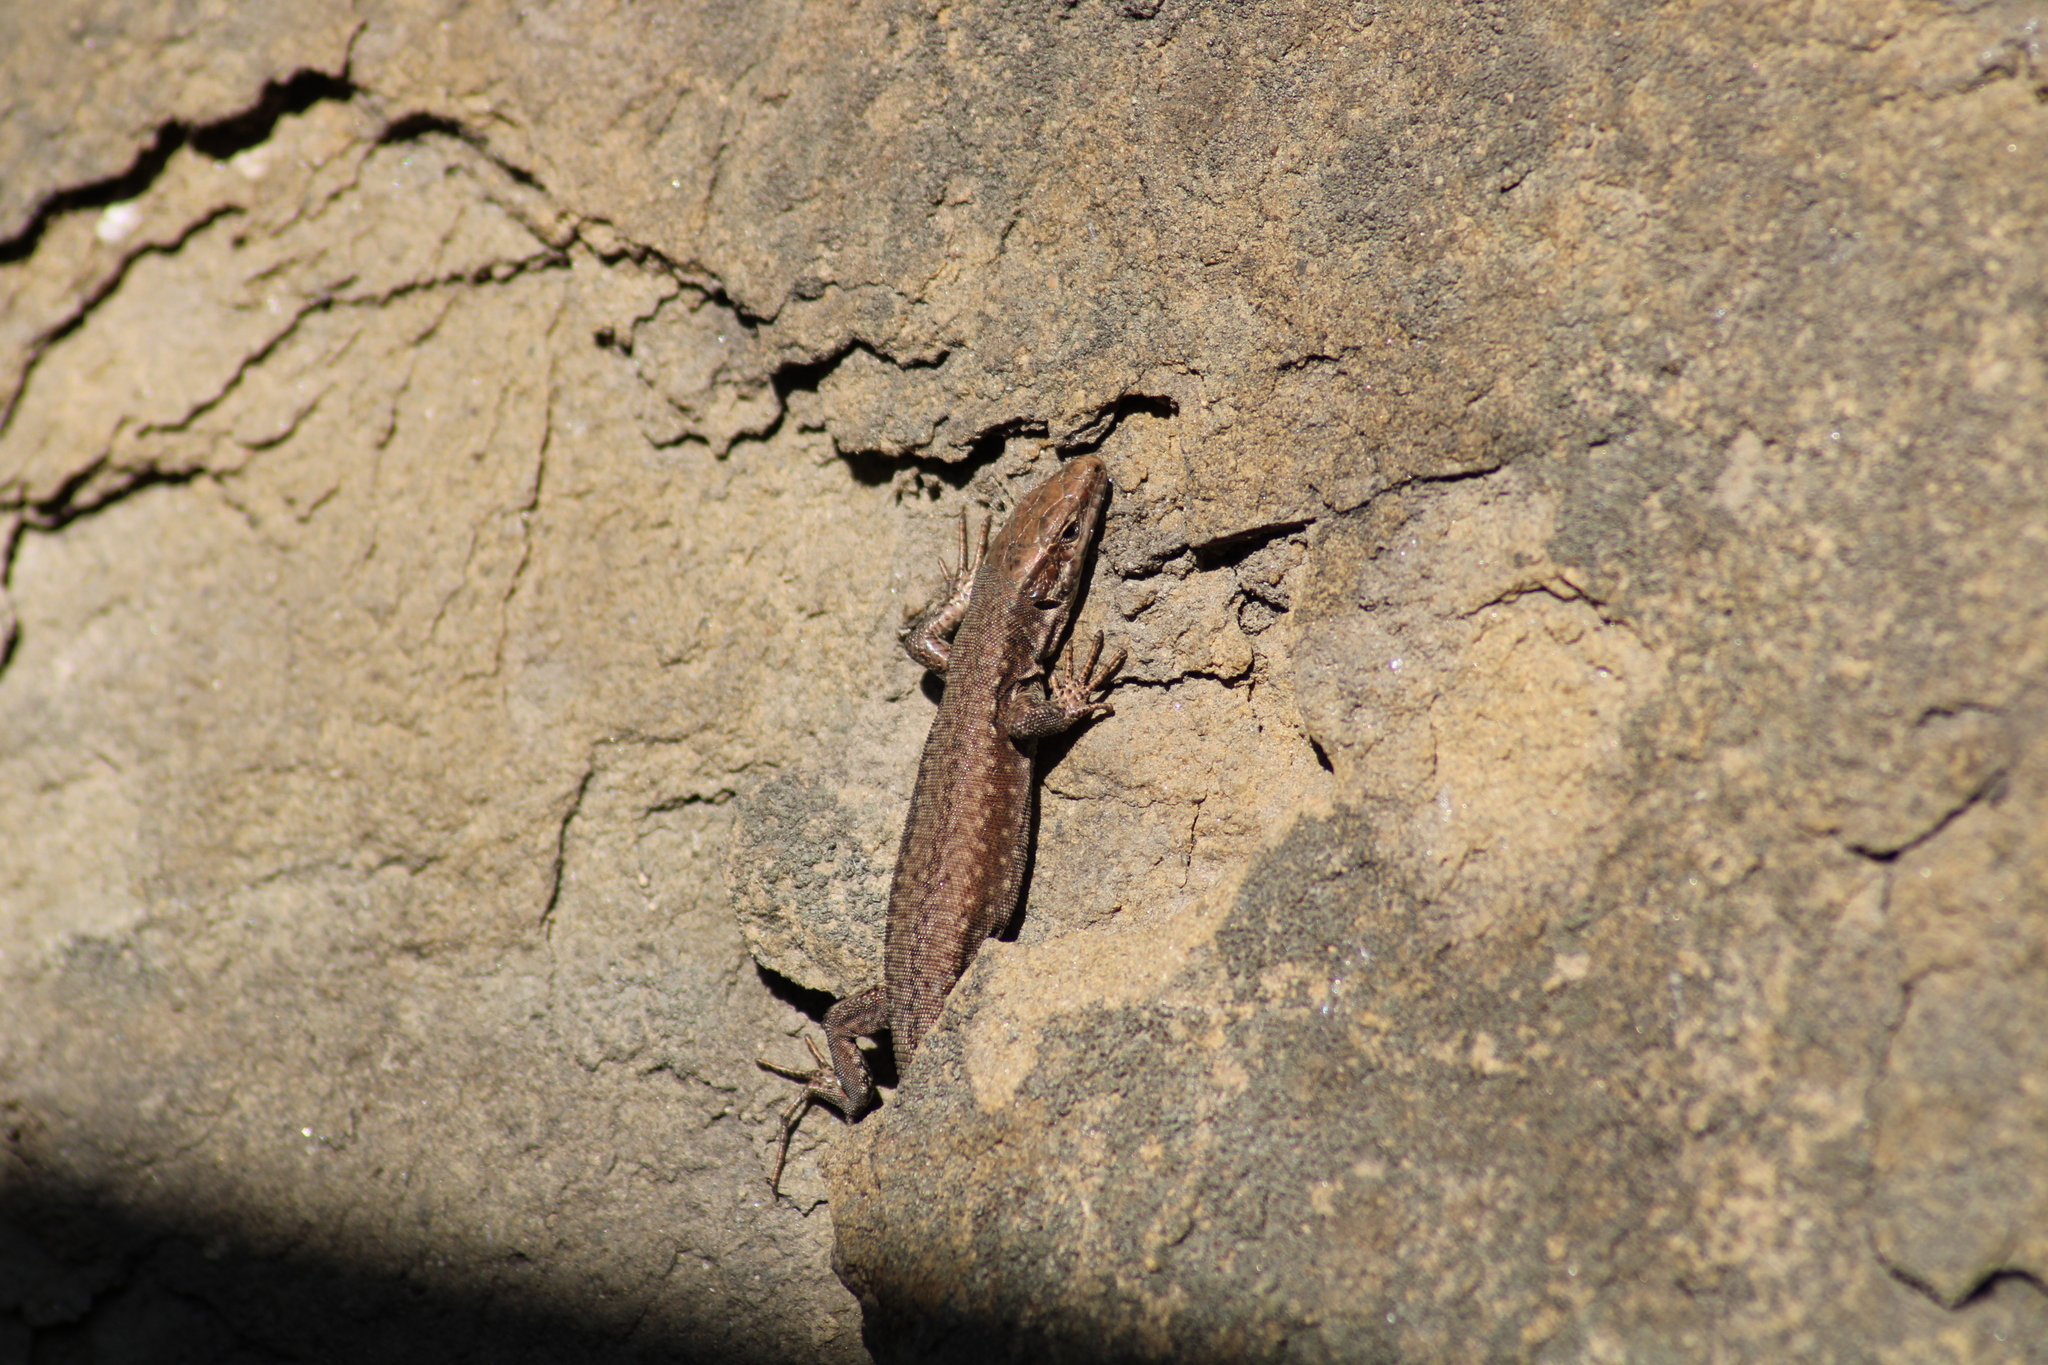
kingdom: Animalia
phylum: Chordata
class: Squamata
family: Lacertidae
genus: Podarcis
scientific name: Podarcis muralis
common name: Common wall lizard
